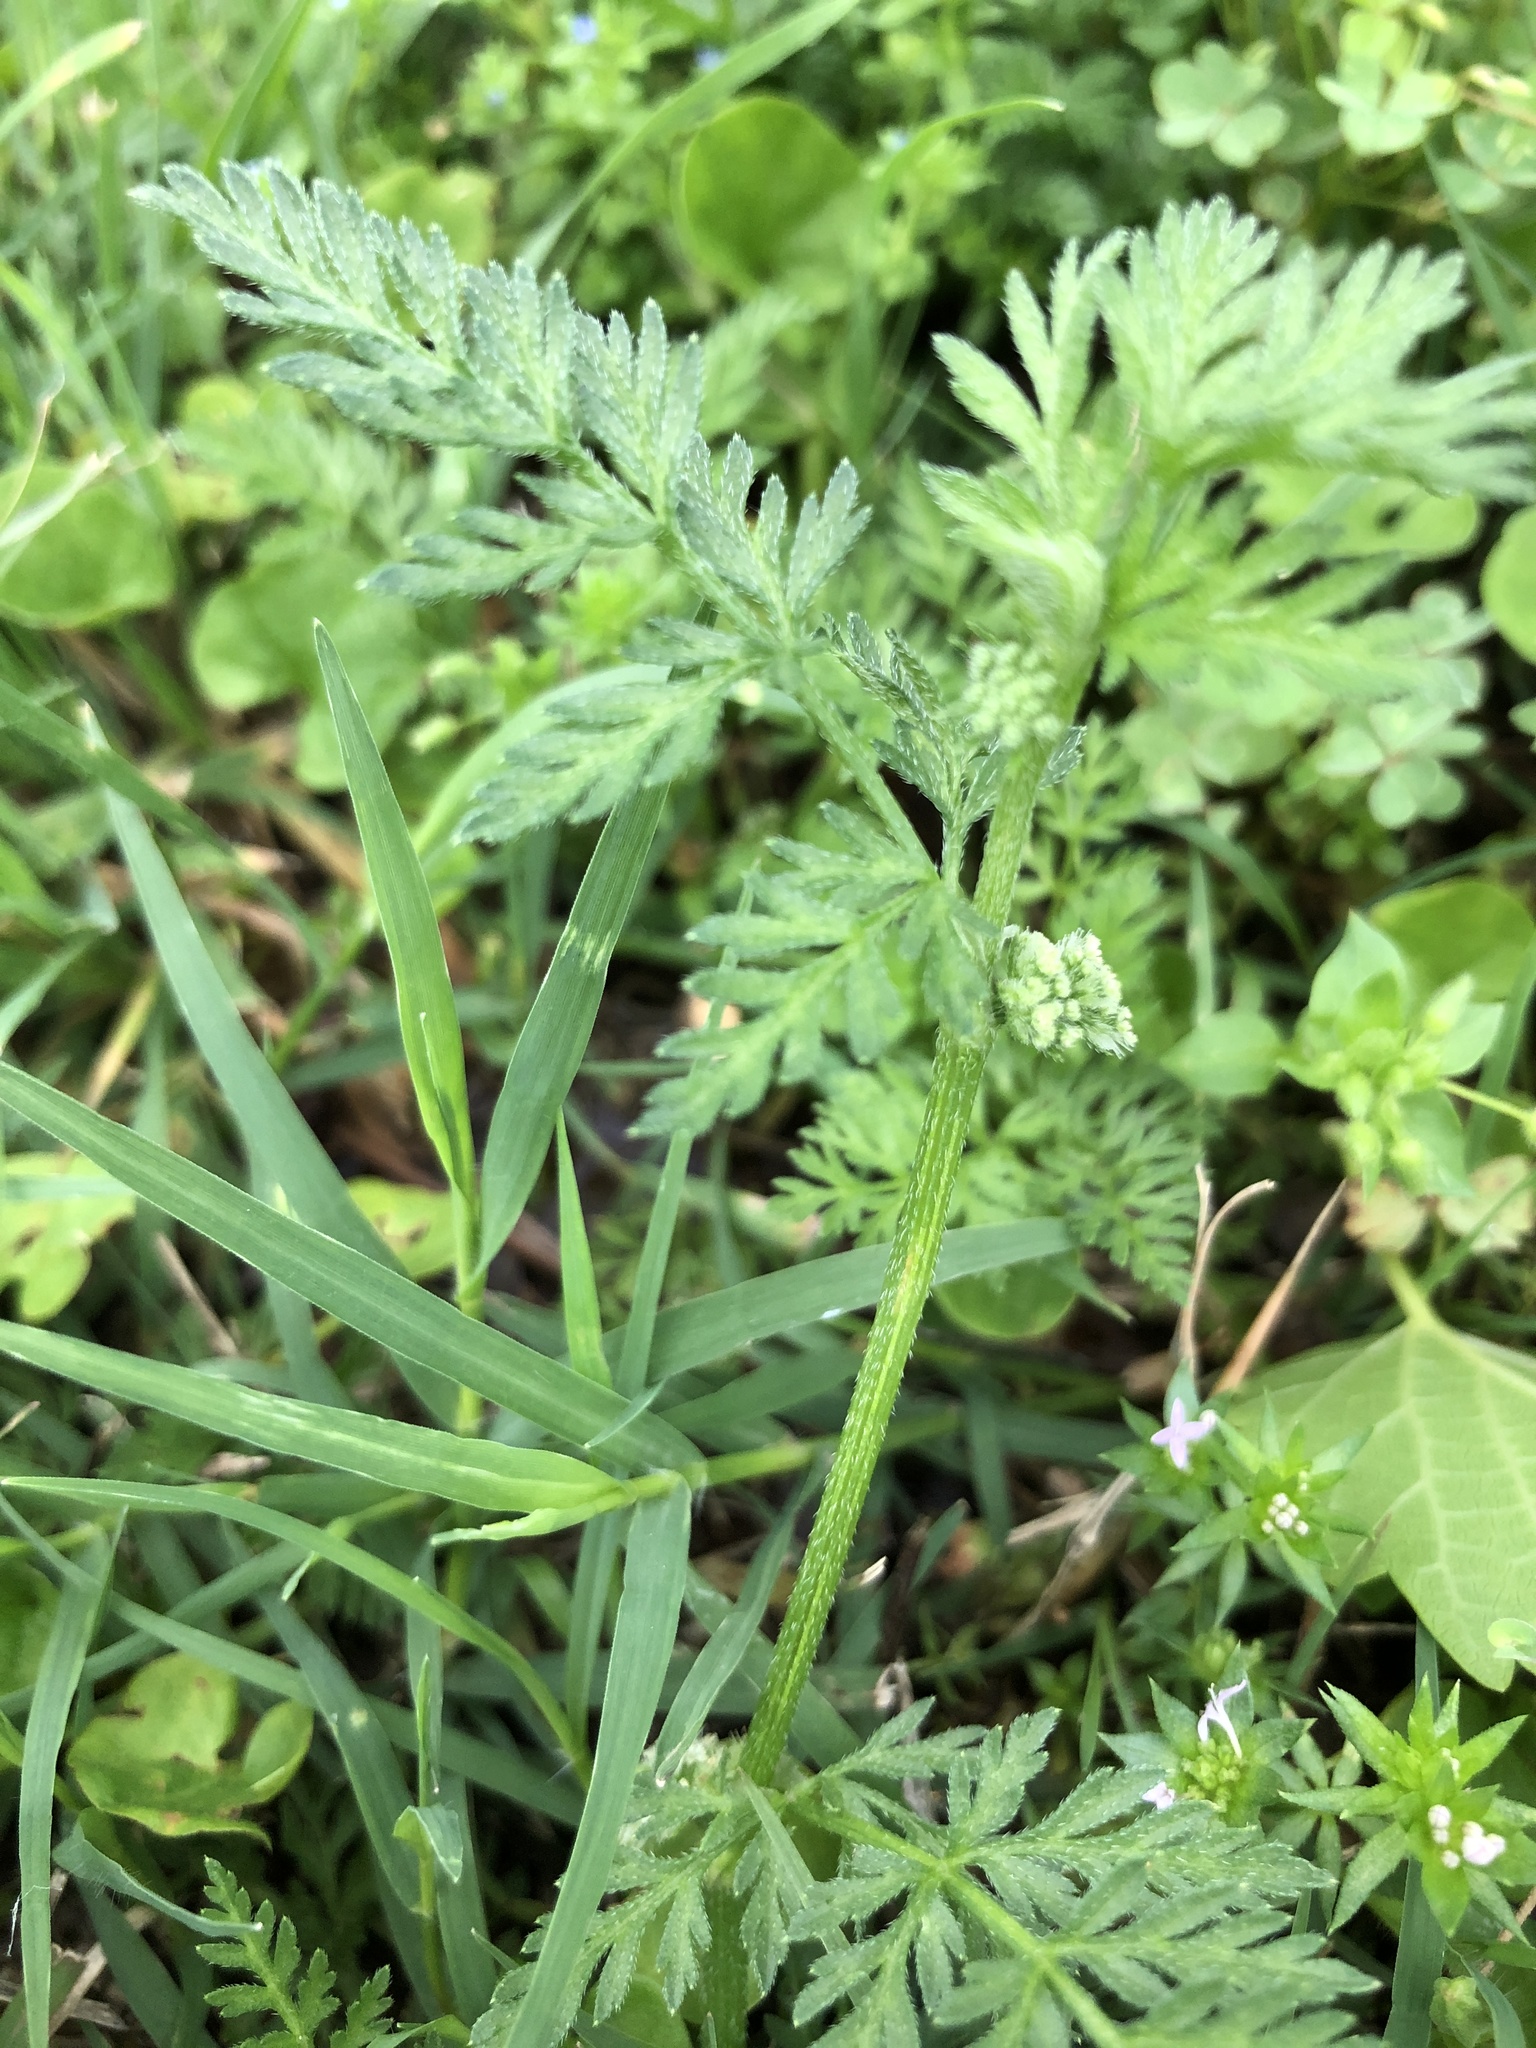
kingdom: Plantae
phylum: Tracheophyta
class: Magnoliopsida
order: Apiales
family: Apiaceae
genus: Torilis
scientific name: Torilis nodosa
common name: Knotted hedge-parsley
